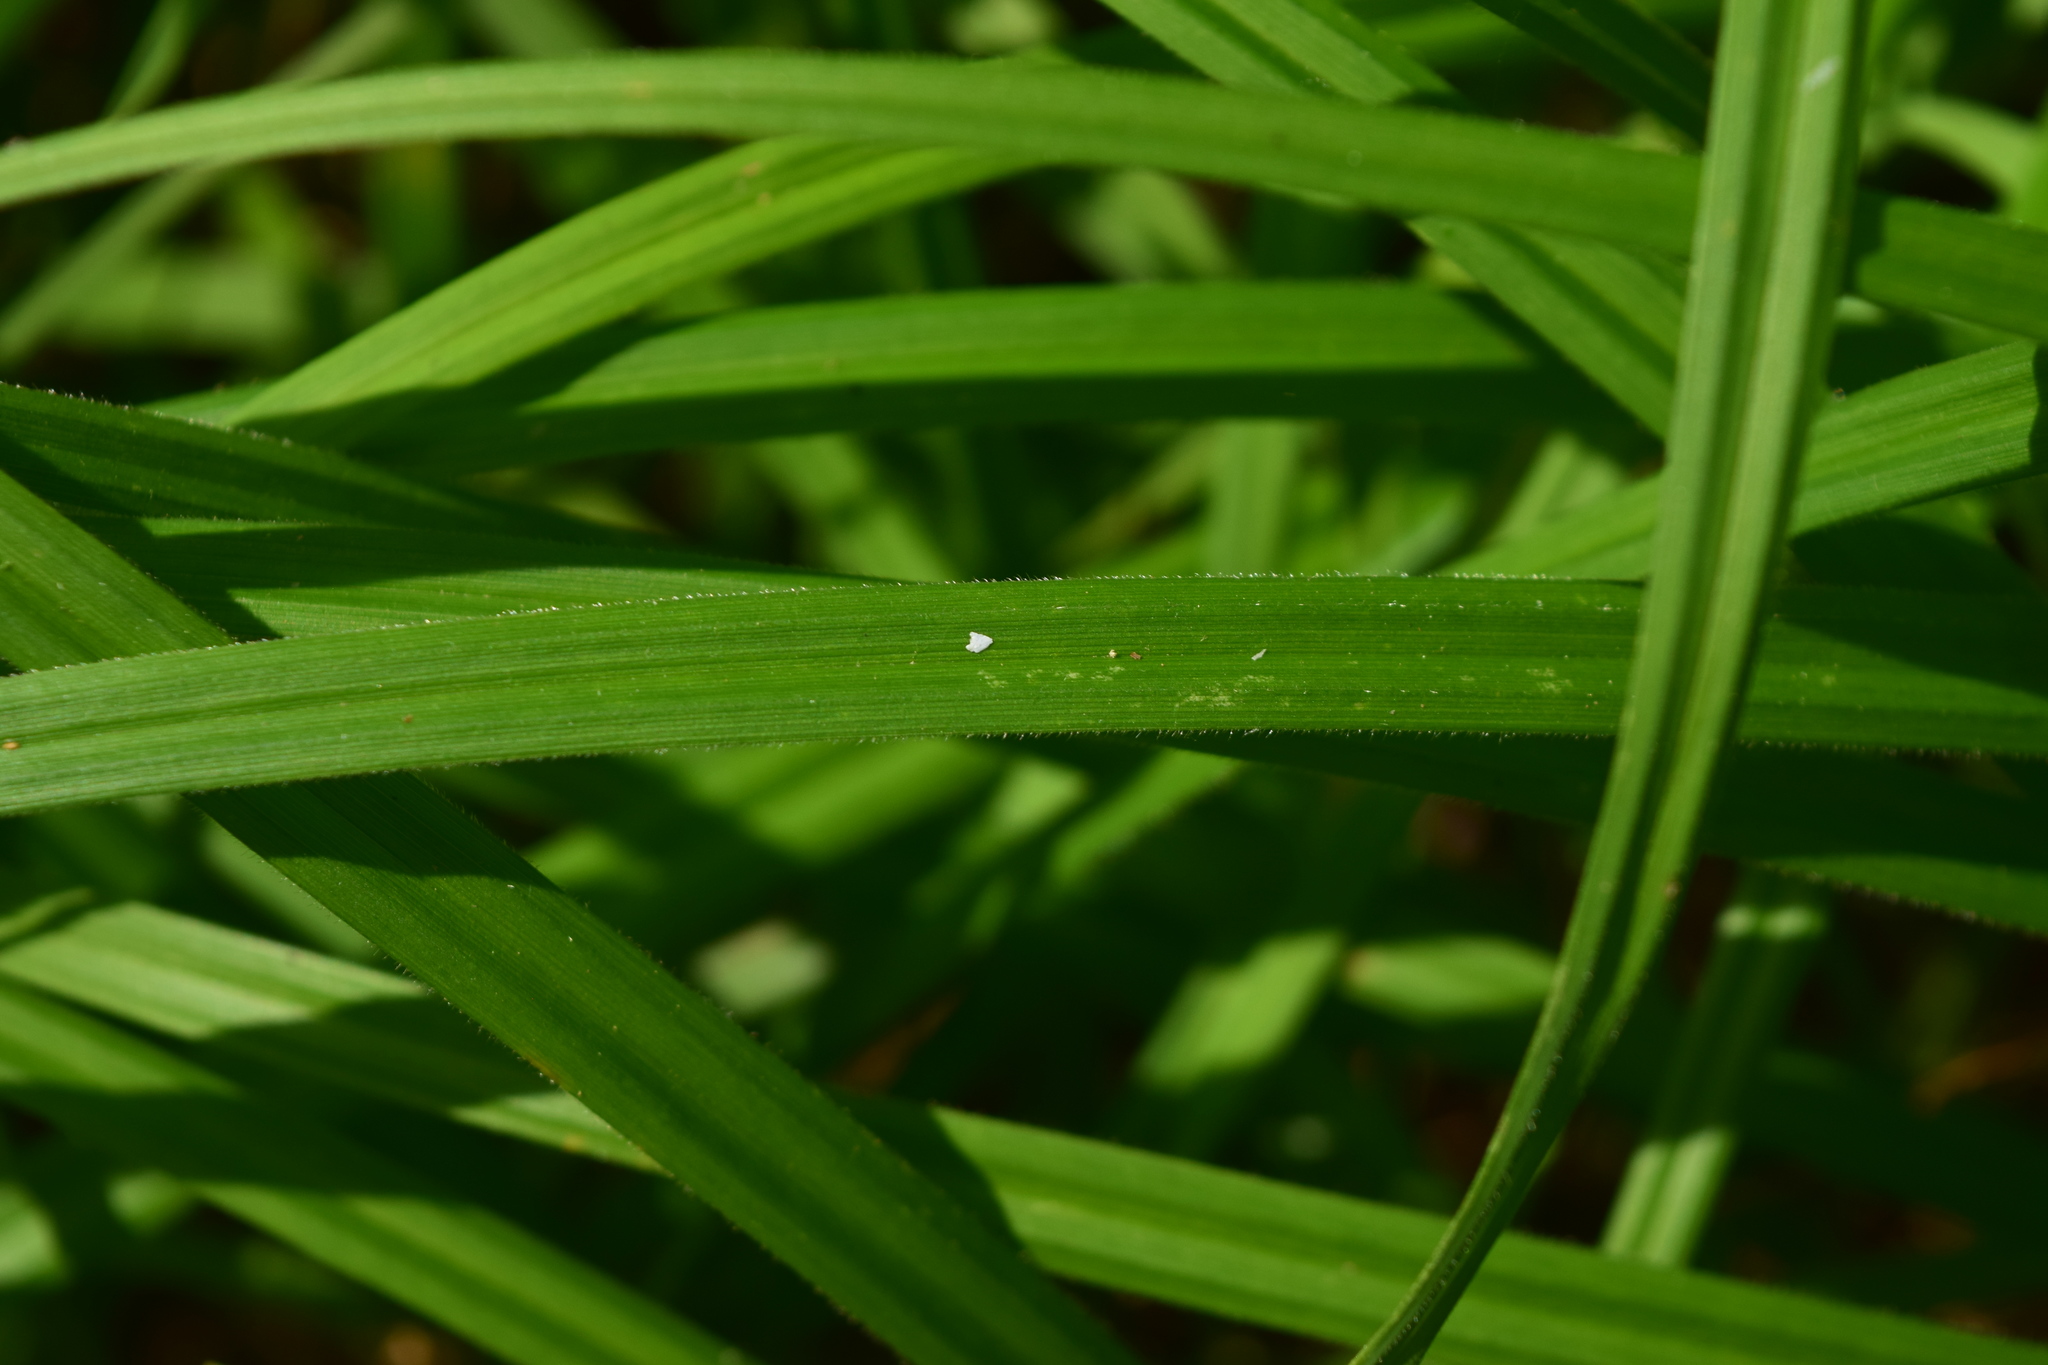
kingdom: Plantae
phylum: Tracheophyta
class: Liliopsida
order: Poales
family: Cyperaceae
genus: Carex
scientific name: Carex pilosa
